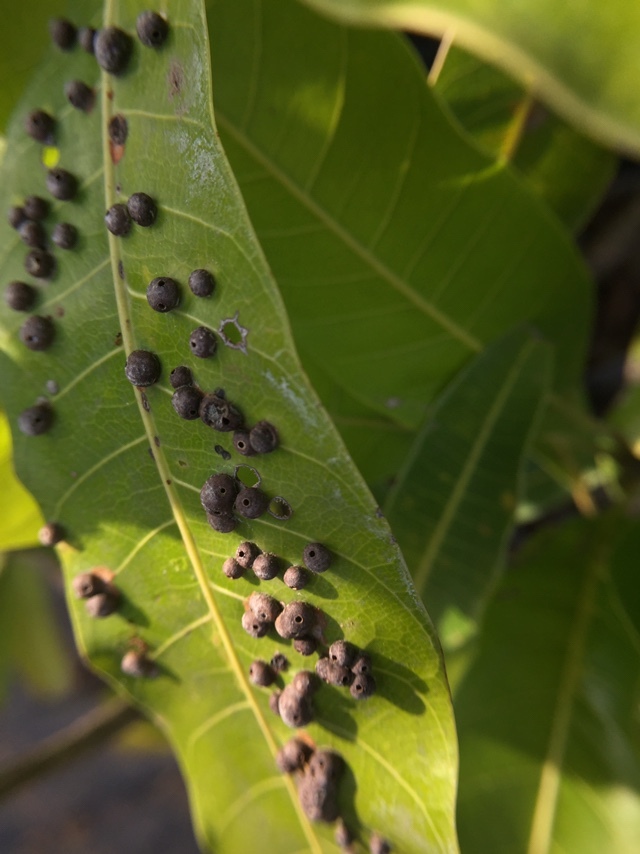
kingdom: Animalia
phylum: Arthropoda
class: Insecta
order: Diptera
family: Cecidomyiidae
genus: Procontarinia
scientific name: Procontarinia mangiferae
